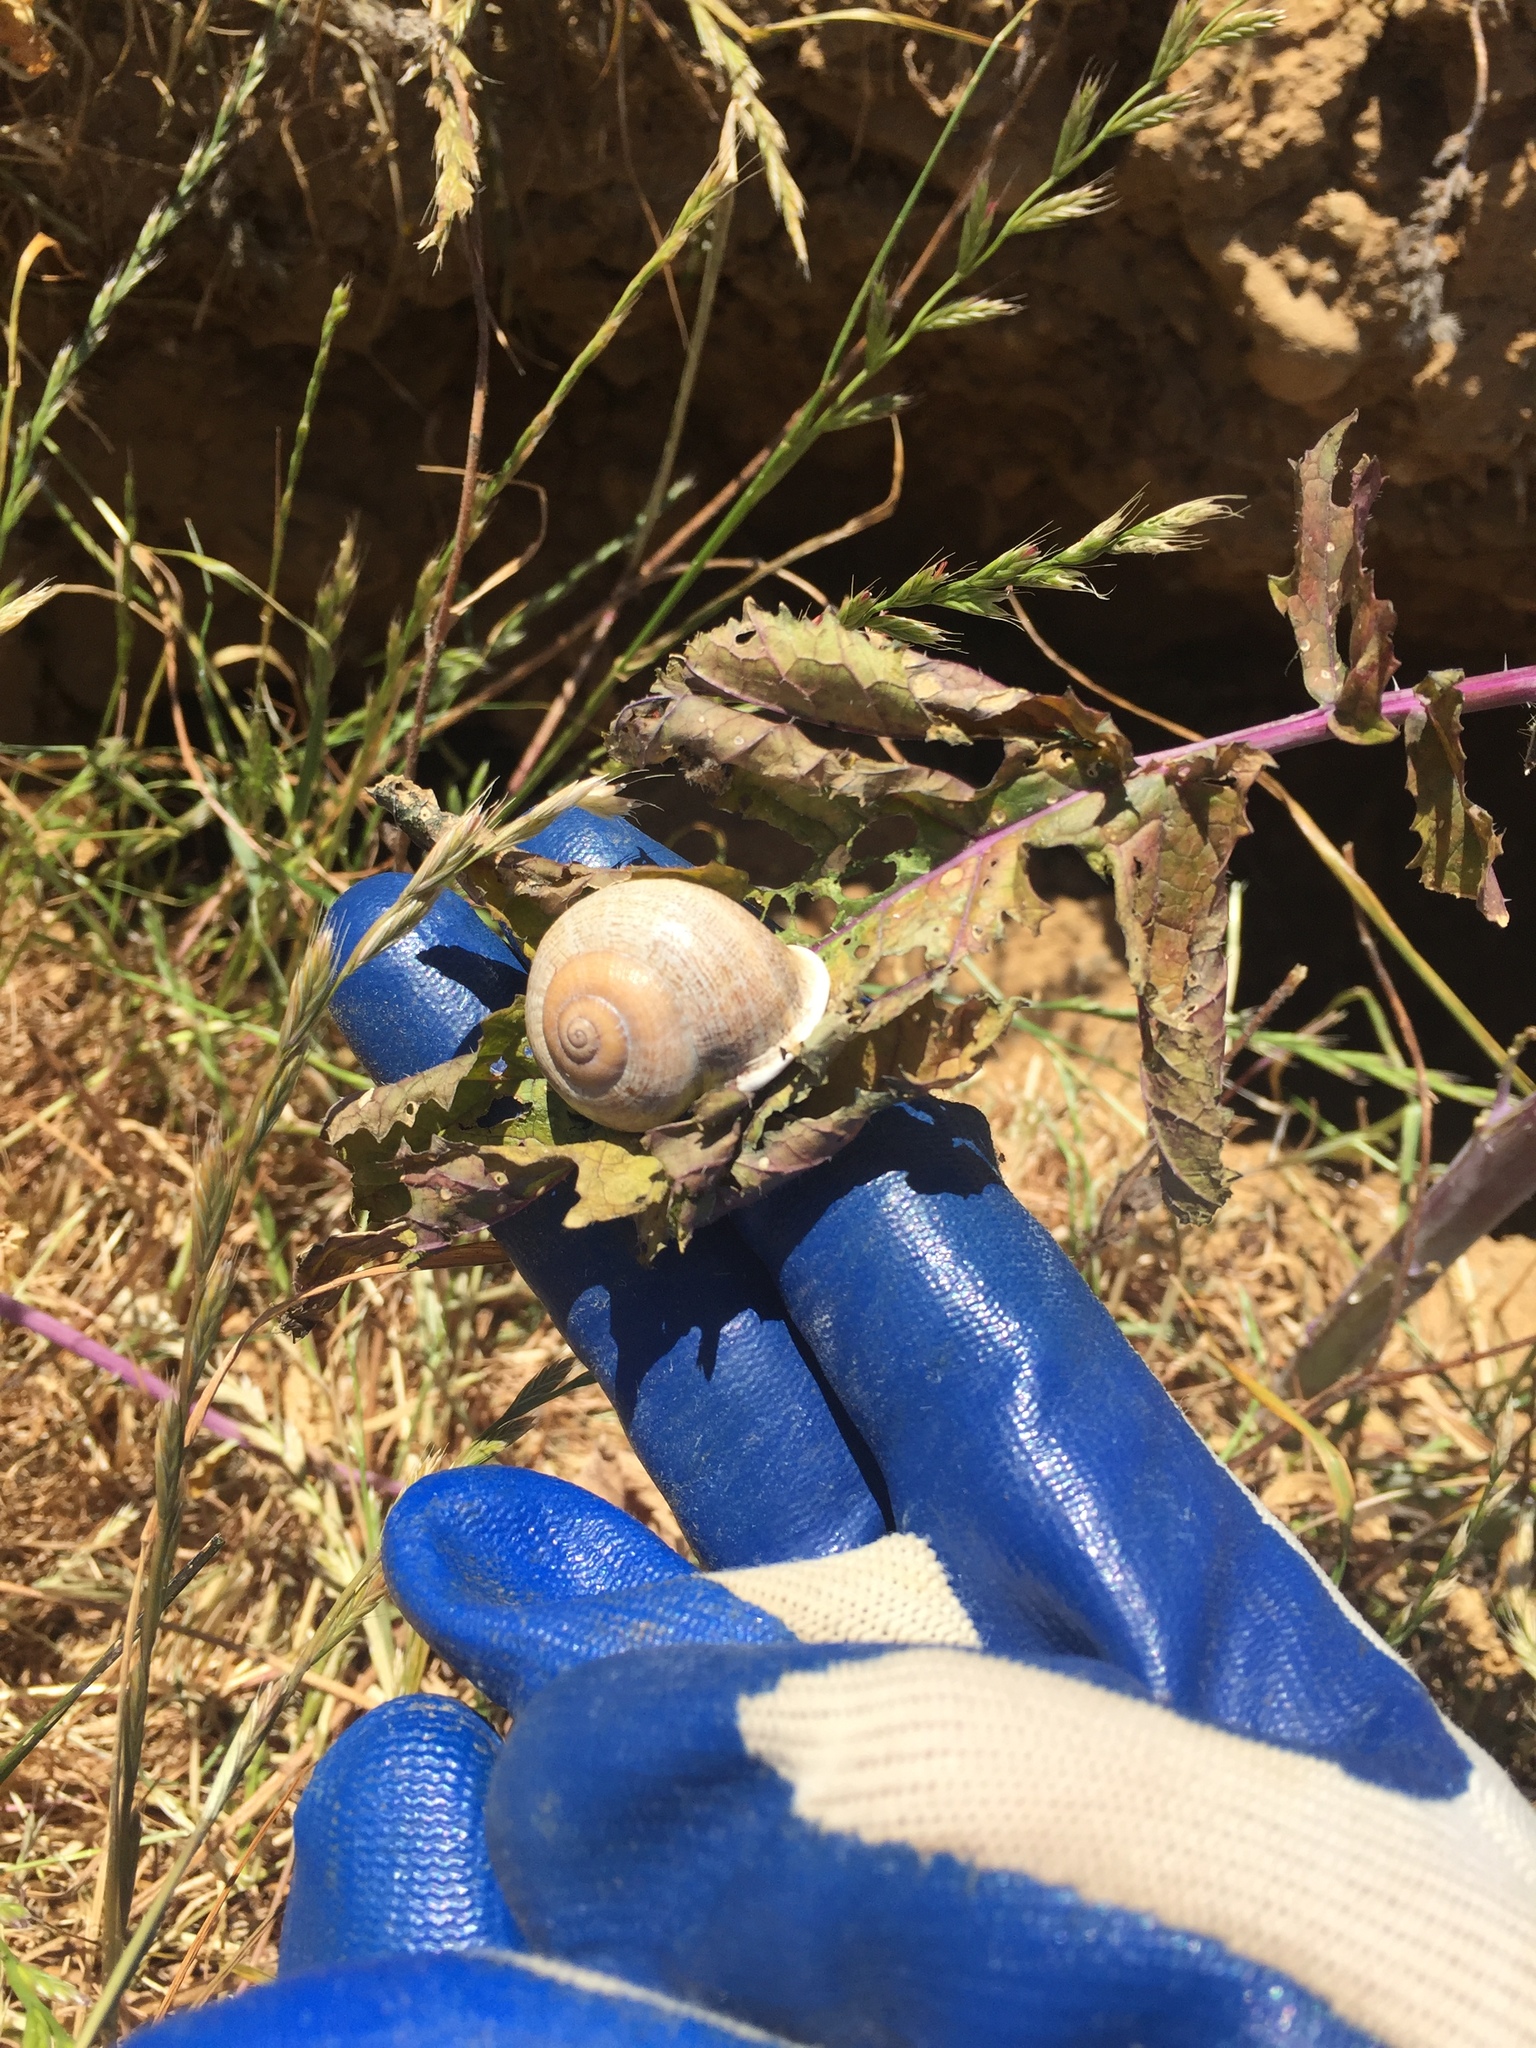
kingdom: Animalia
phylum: Mollusca
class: Gastropoda
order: Stylommatophora
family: Helicidae
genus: Otala
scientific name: Otala lactea
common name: Milk snail
